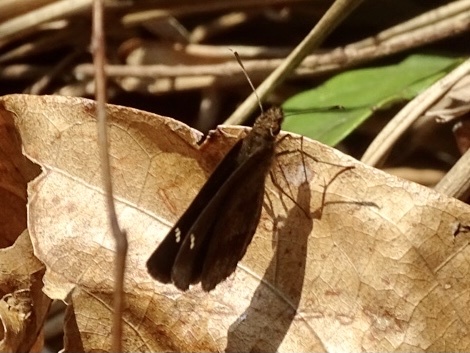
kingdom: Animalia
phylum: Arthropoda
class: Insecta
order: Lepidoptera
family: Hesperiidae
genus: Astictopterus
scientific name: Astictopterus jama
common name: Forest hopper
